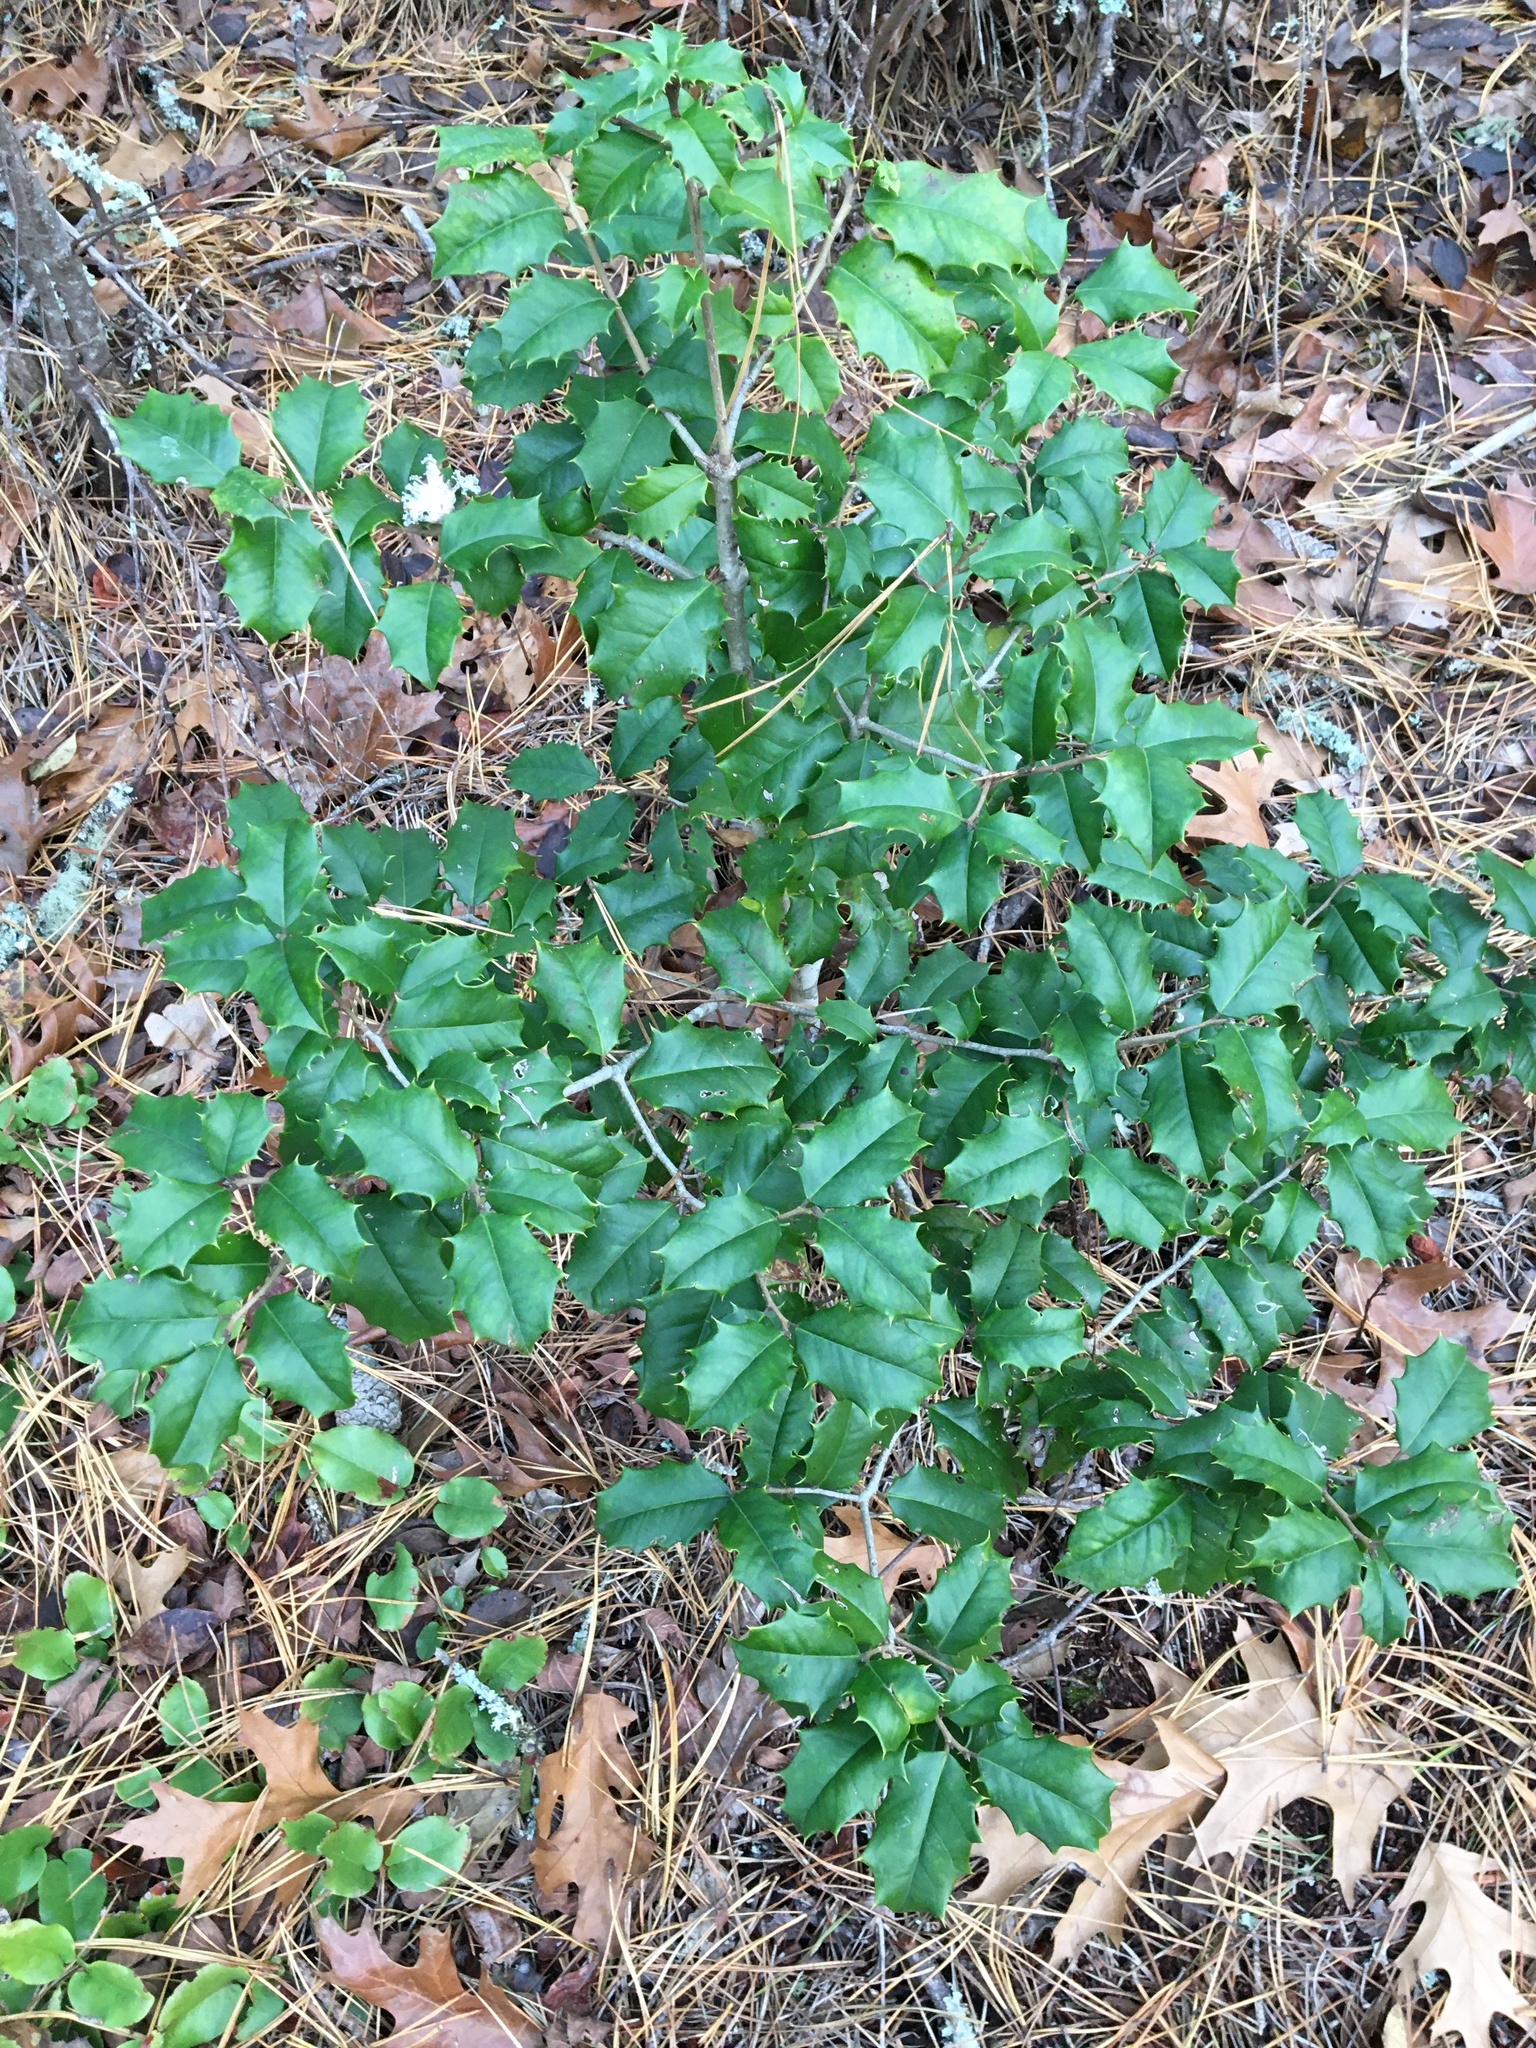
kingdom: Plantae
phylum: Tracheophyta
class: Magnoliopsida
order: Aquifoliales
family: Aquifoliaceae
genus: Ilex
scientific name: Ilex opaca
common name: American holly
